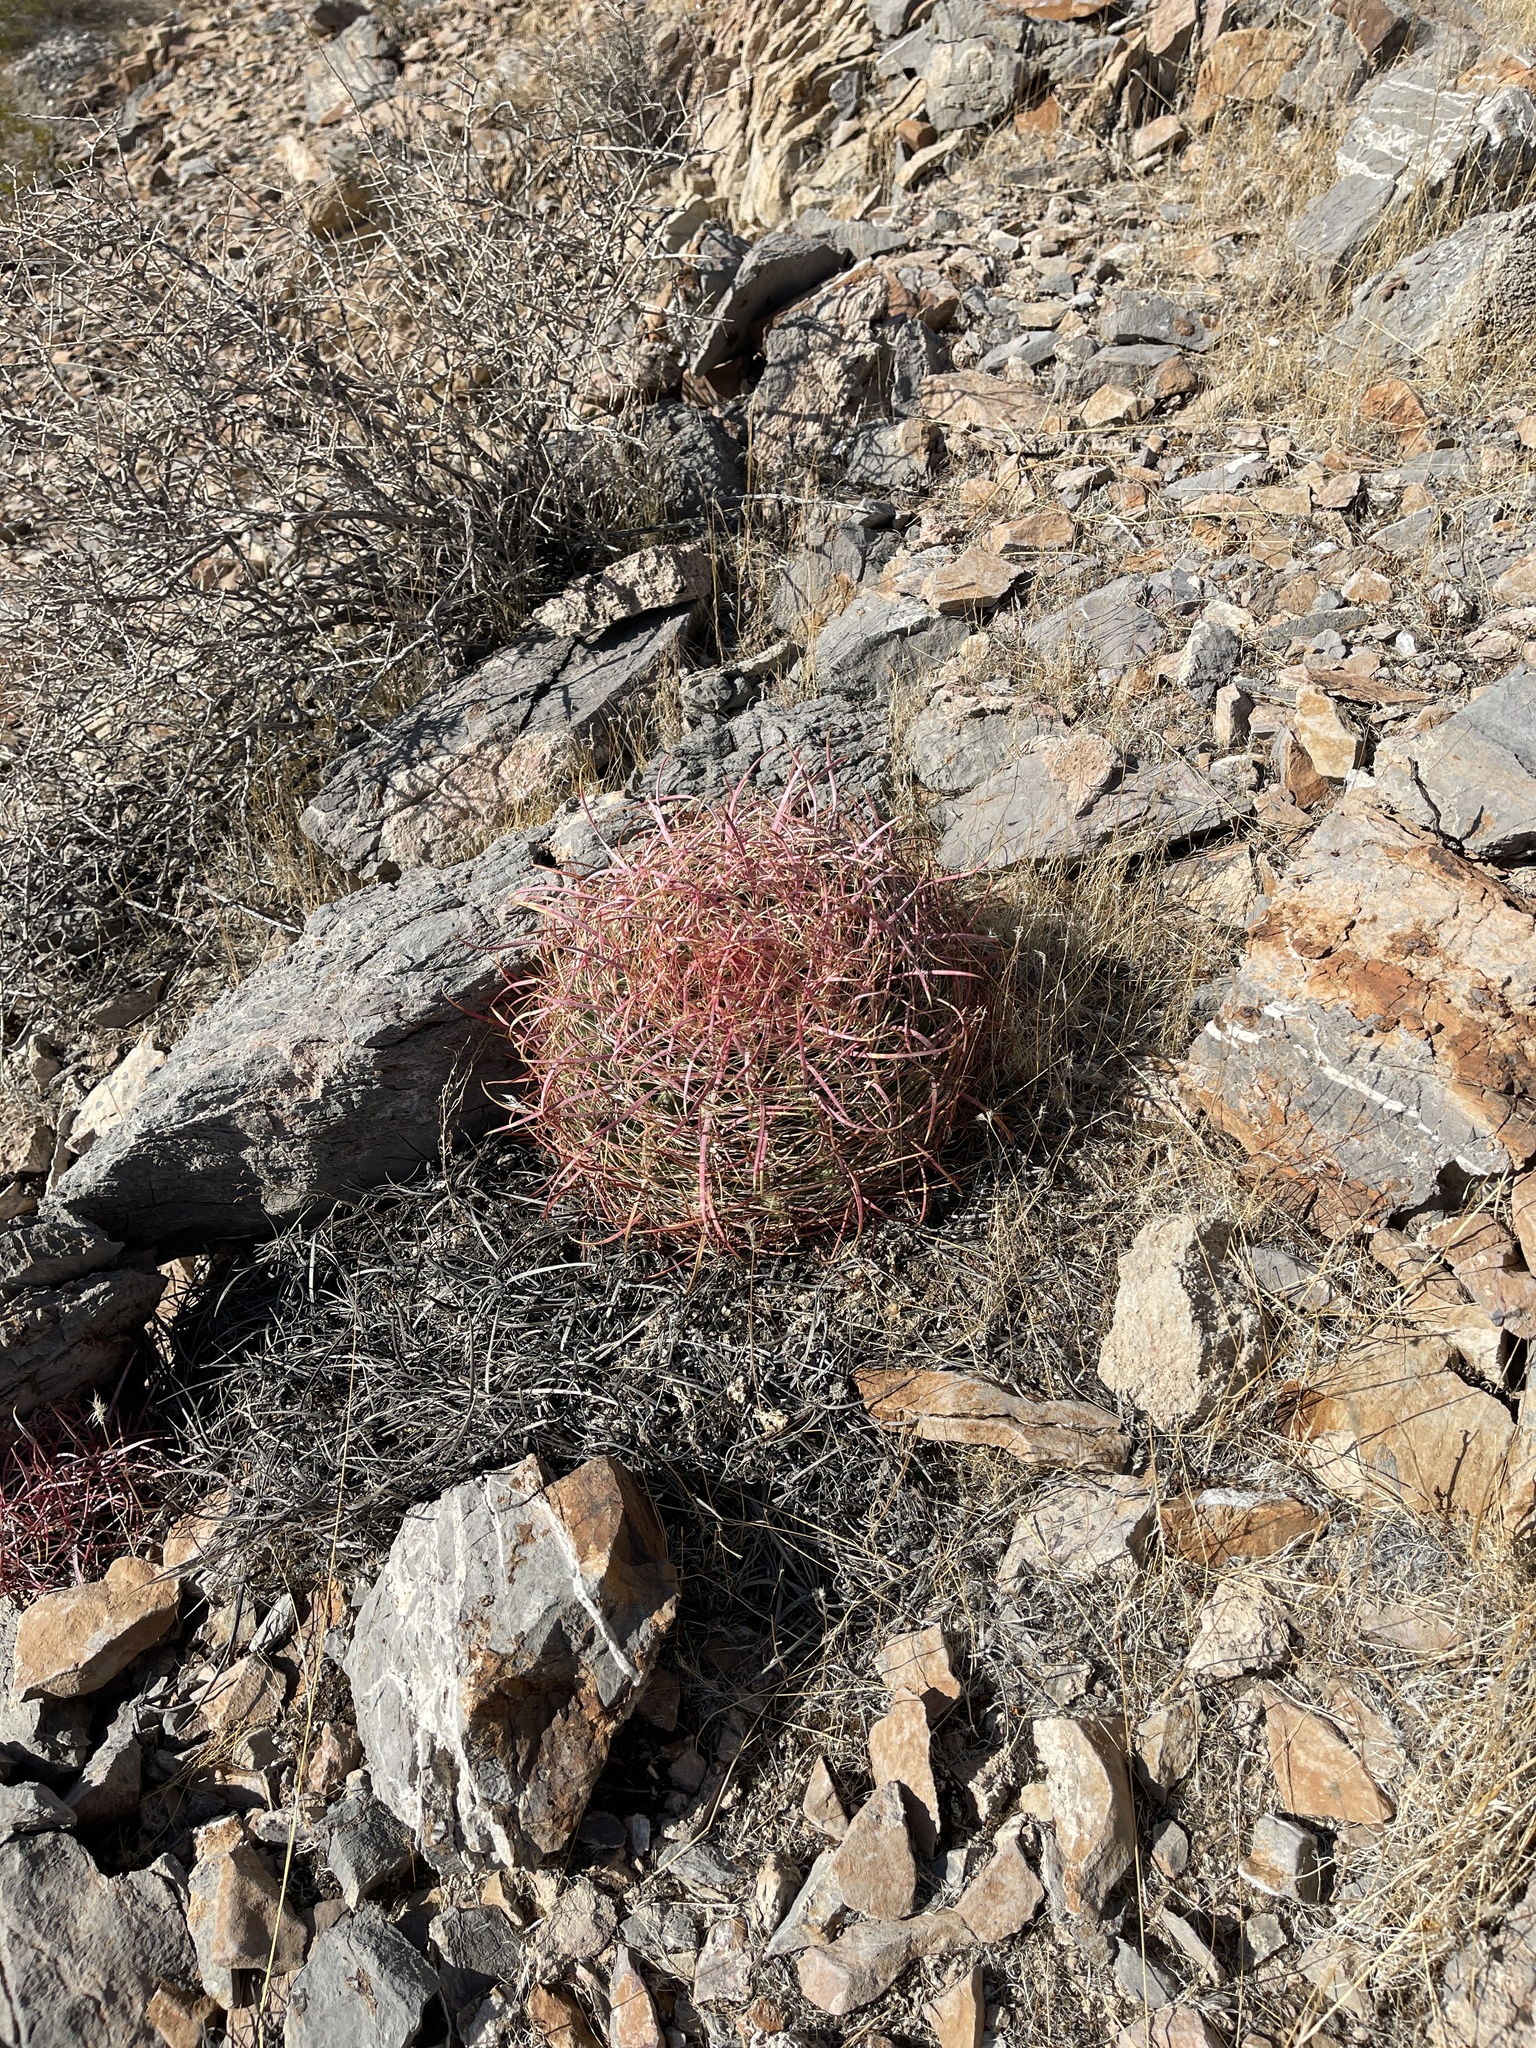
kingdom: Plantae
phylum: Tracheophyta
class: Magnoliopsida
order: Caryophyllales
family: Cactaceae
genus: Ferocactus
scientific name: Ferocactus cylindraceus
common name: California barrel cactus
